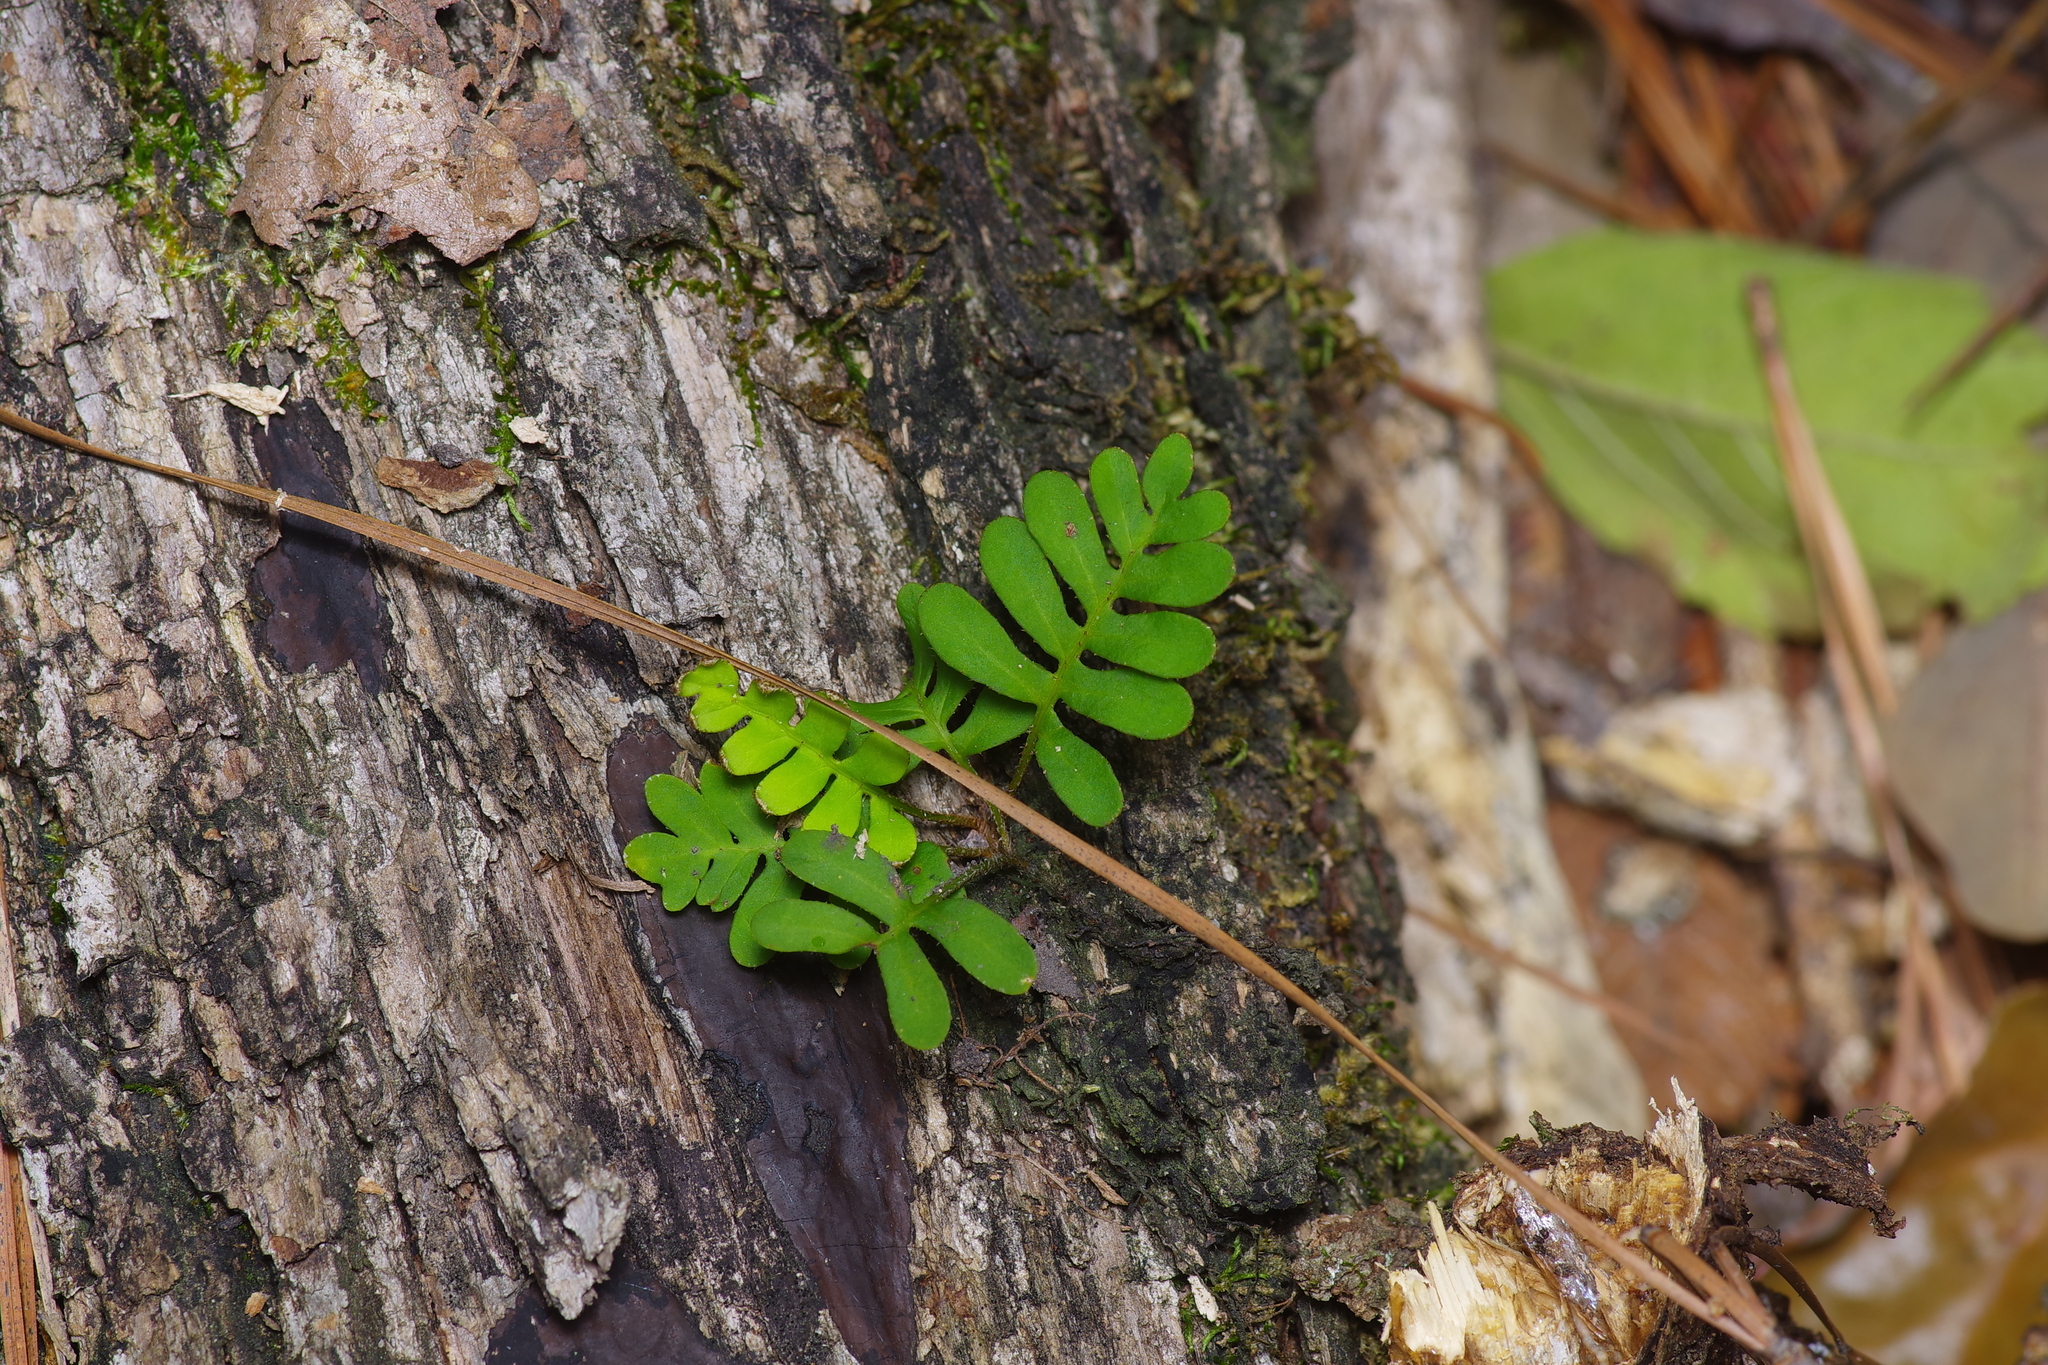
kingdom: Plantae
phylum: Tracheophyta
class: Polypodiopsida
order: Polypodiales
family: Polypodiaceae
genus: Pleopeltis
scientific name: Pleopeltis michauxiana
